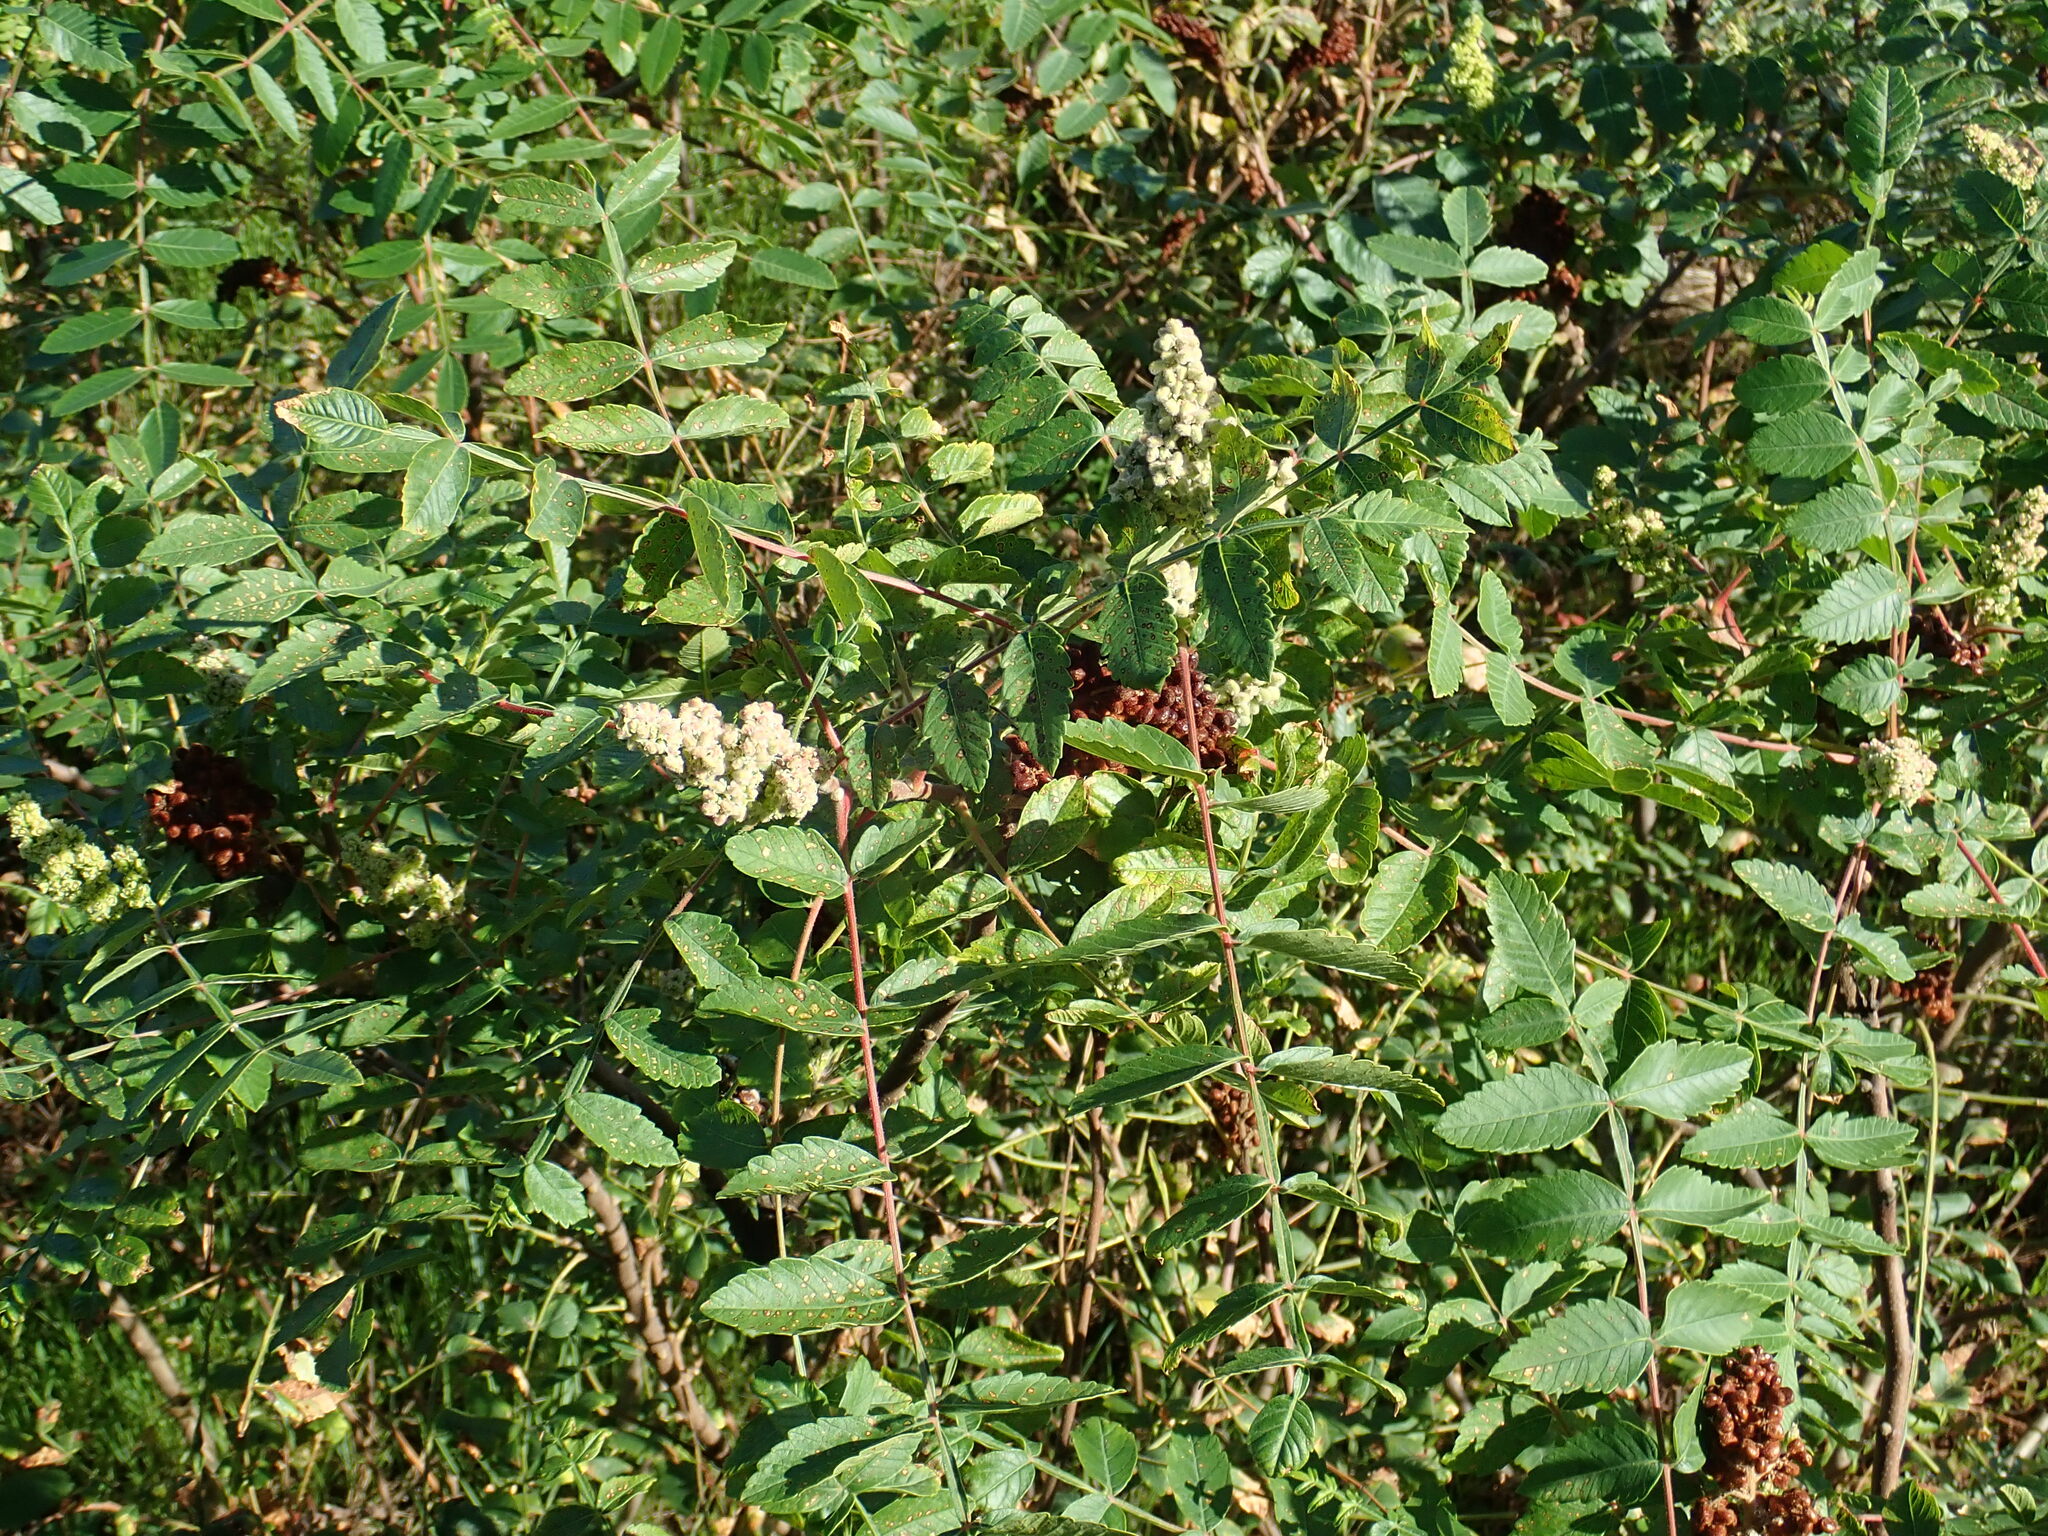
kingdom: Plantae
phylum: Tracheophyta
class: Magnoliopsida
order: Sapindales
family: Anacardiaceae
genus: Rhus
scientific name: Rhus coriaria
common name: Tanner's sumach
